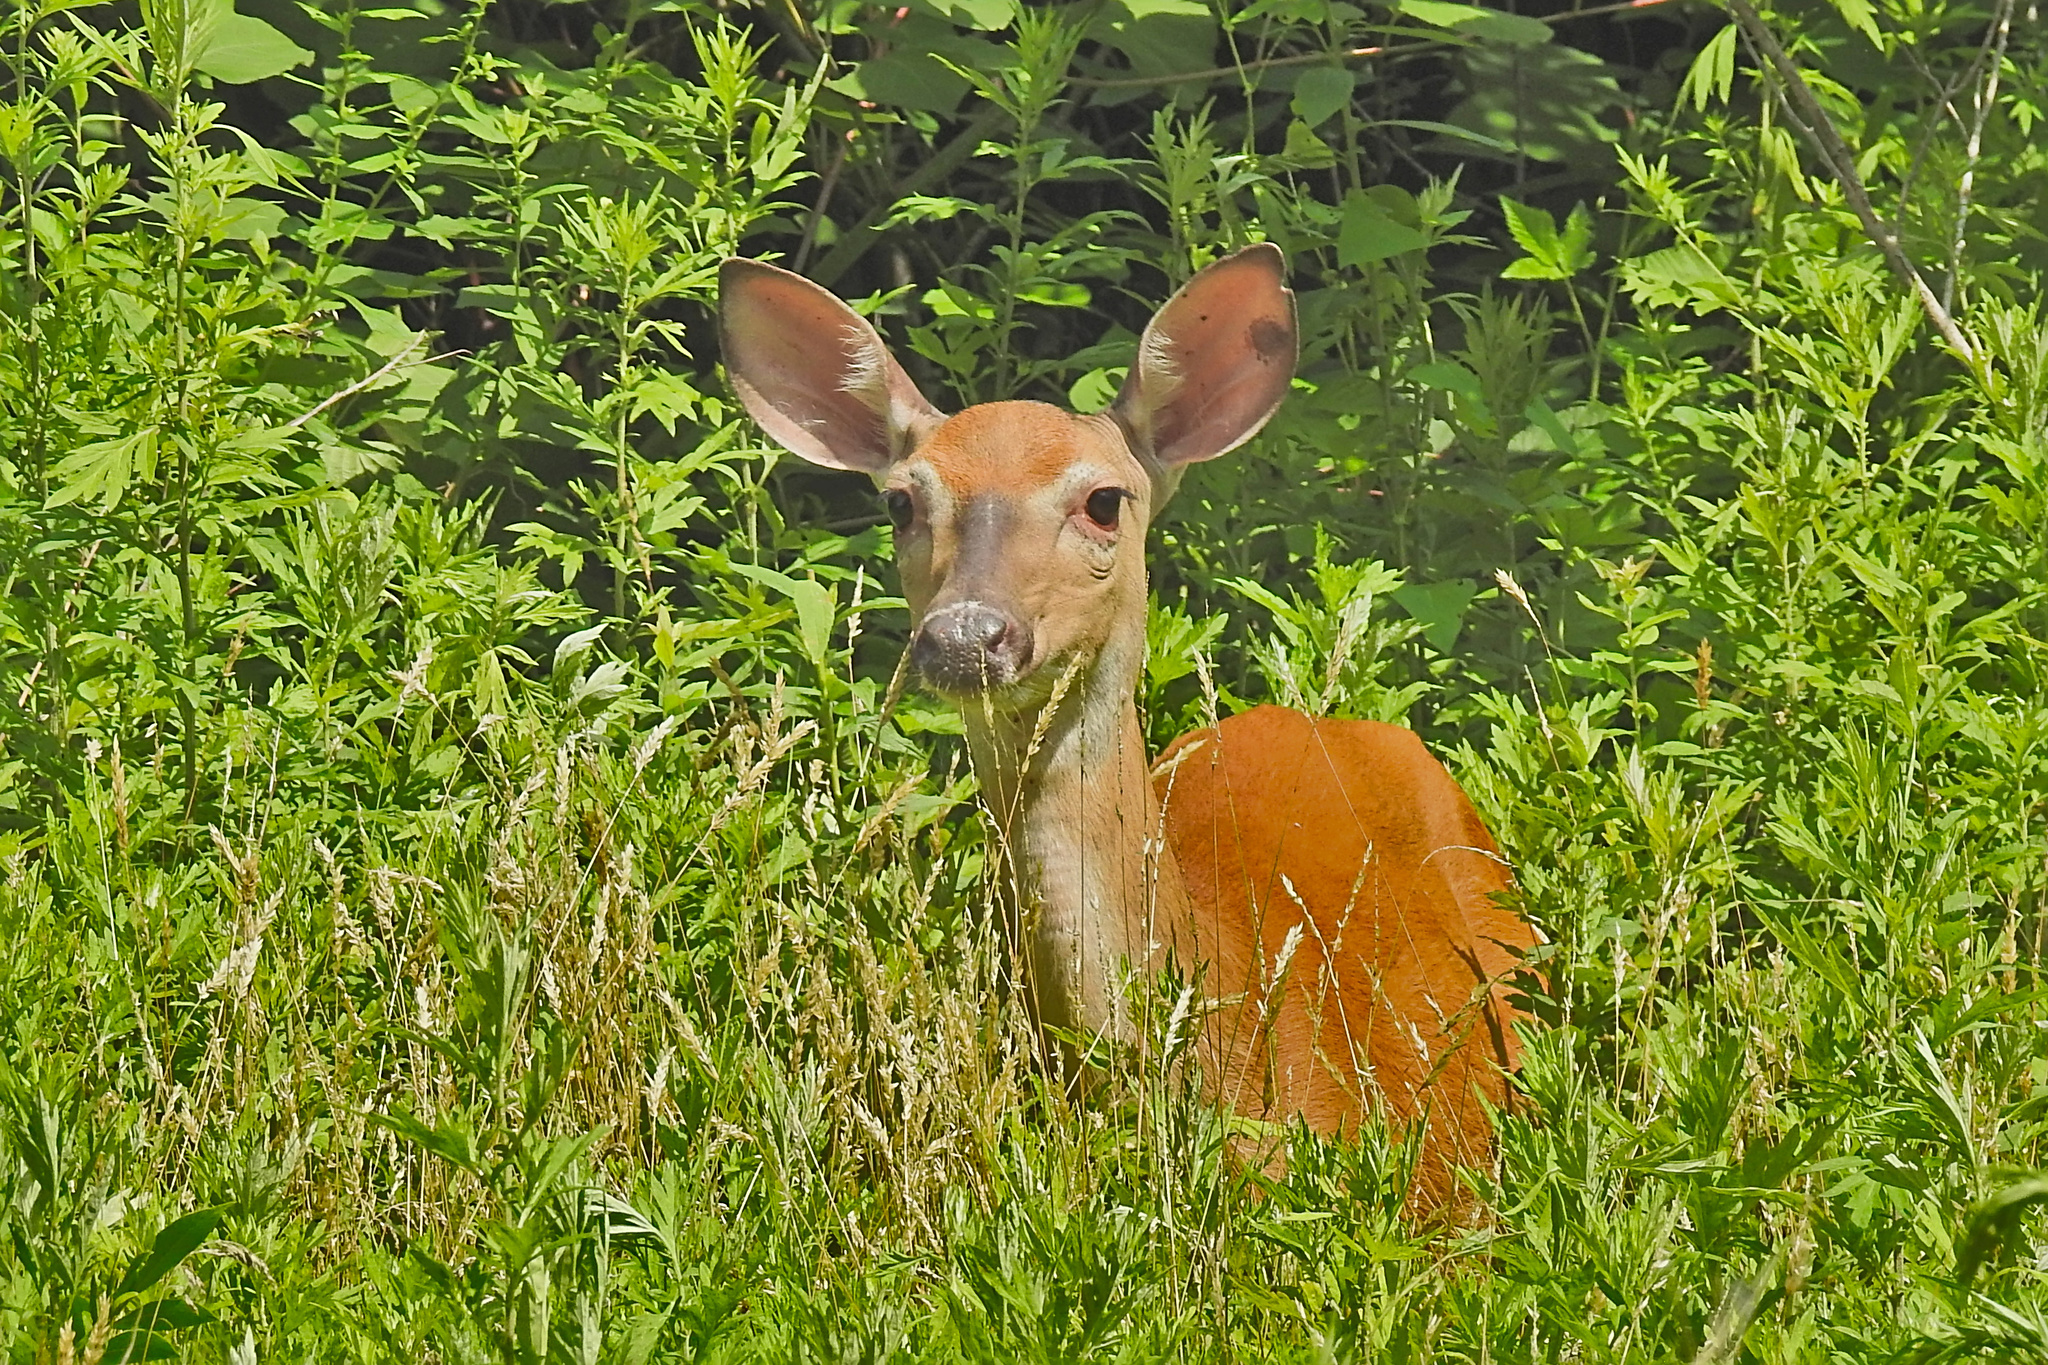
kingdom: Animalia
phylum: Chordata
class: Mammalia
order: Artiodactyla
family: Cervidae
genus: Odocoileus
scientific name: Odocoileus virginianus
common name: White-tailed deer
